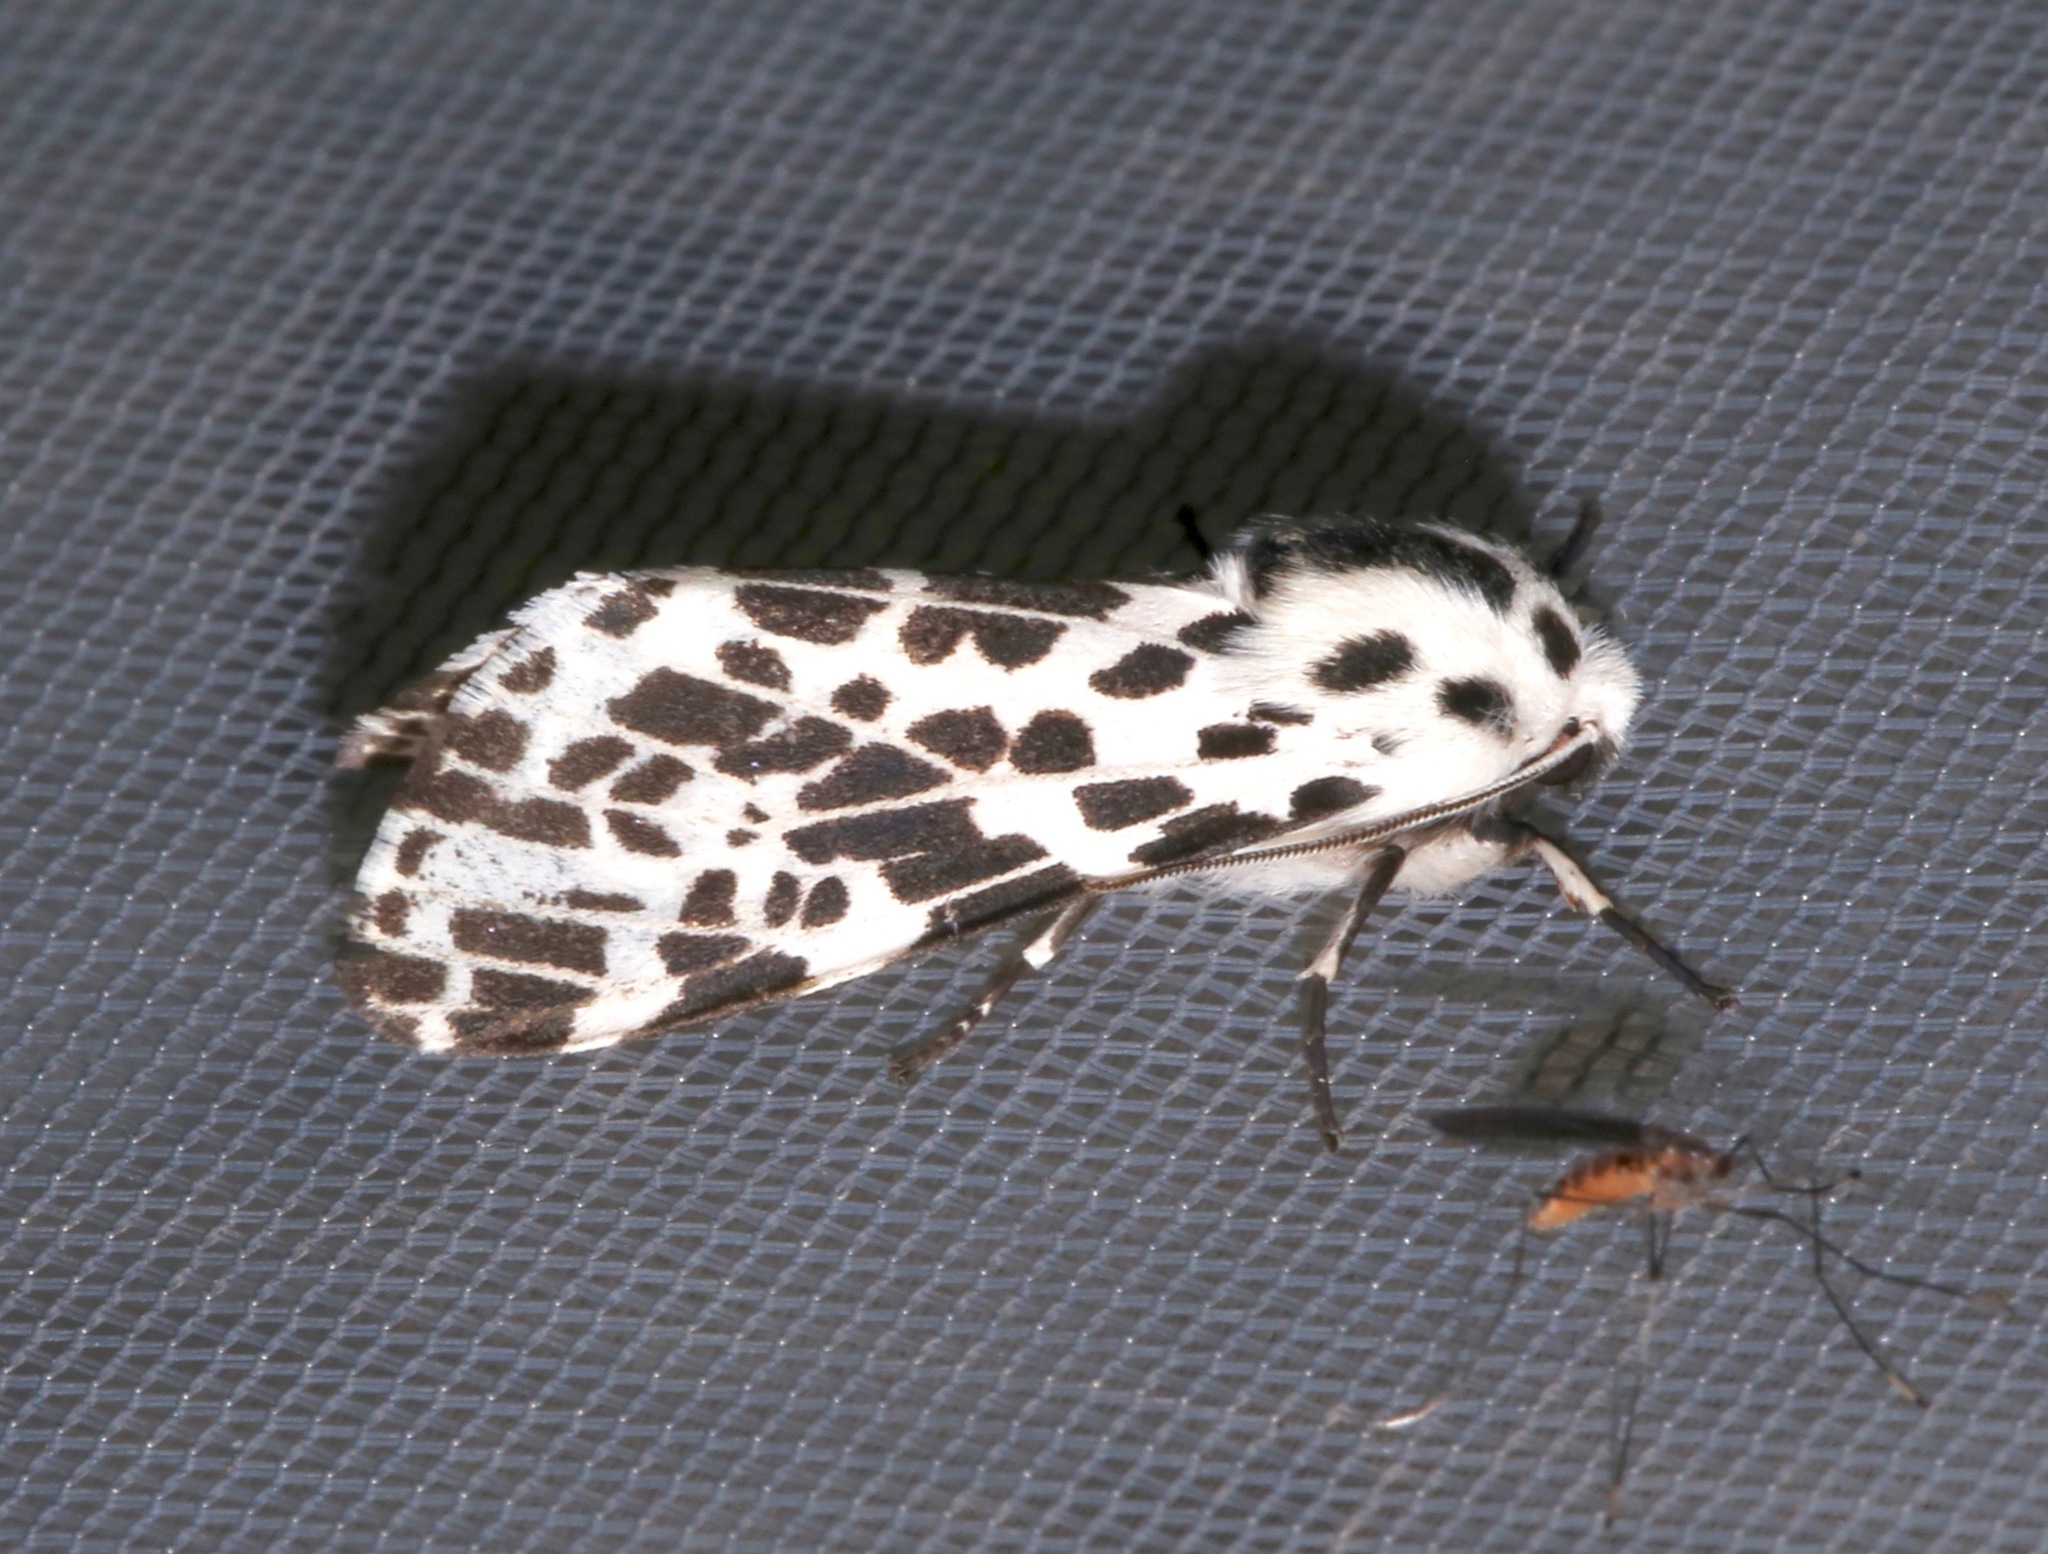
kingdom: Animalia
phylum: Arthropoda
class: Insecta
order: Lepidoptera
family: Erebidae
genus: Hypercompe
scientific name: Hypercompe permaculata
